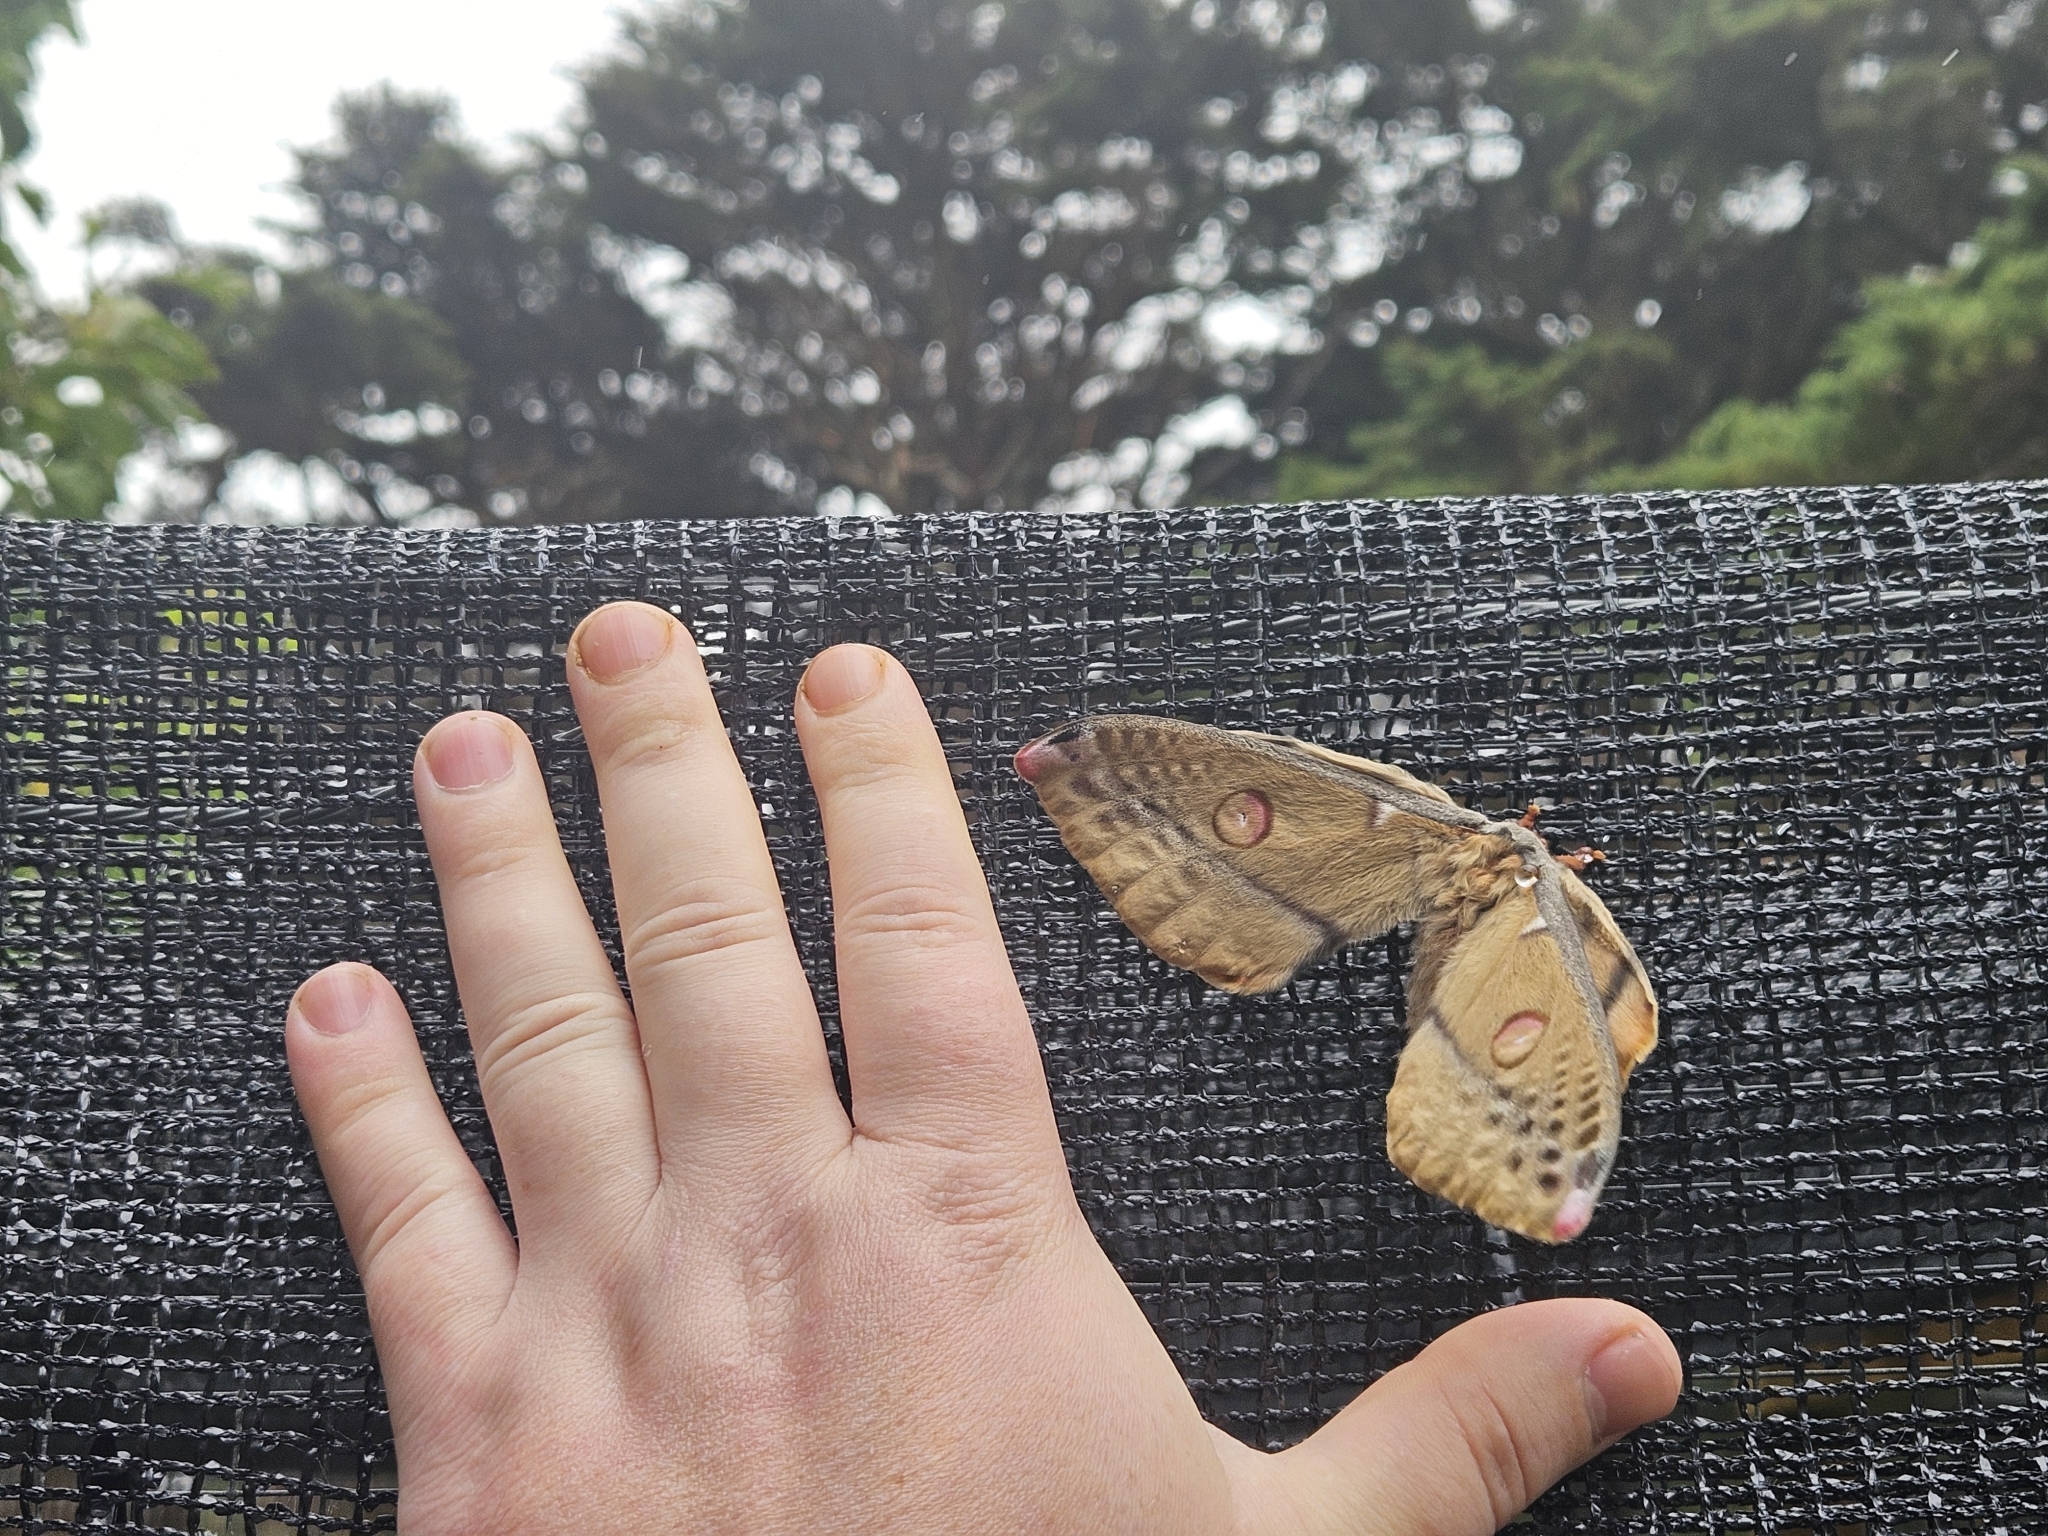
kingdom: Animalia
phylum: Arthropoda
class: Insecta
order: Lepidoptera
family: Saturniidae
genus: Opodiphthera
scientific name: Opodiphthera
